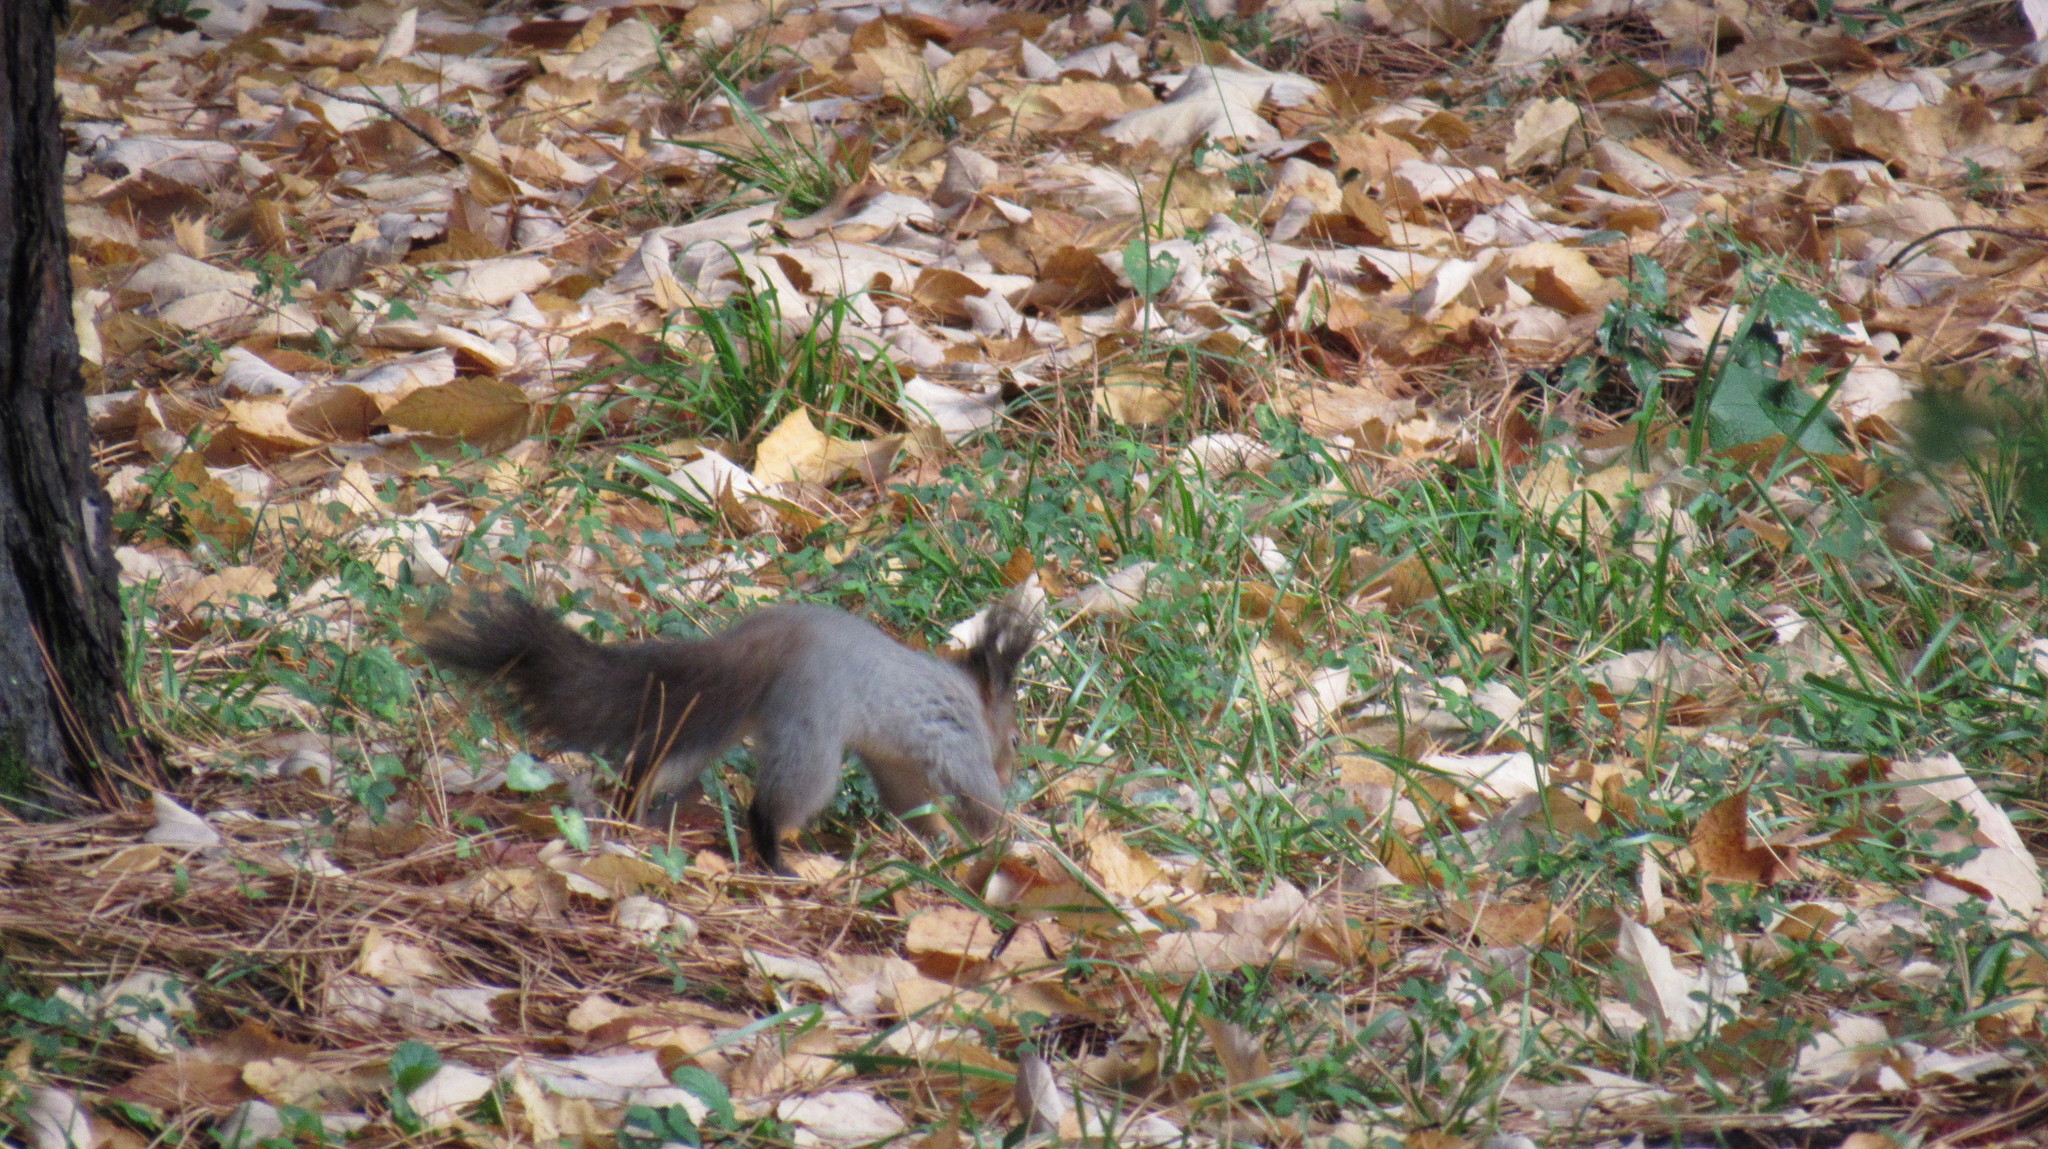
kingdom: Animalia
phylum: Chordata
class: Mammalia
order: Rodentia
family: Sciuridae
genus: Sciurus
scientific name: Sciurus vulgaris
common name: Eurasian red squirrel
